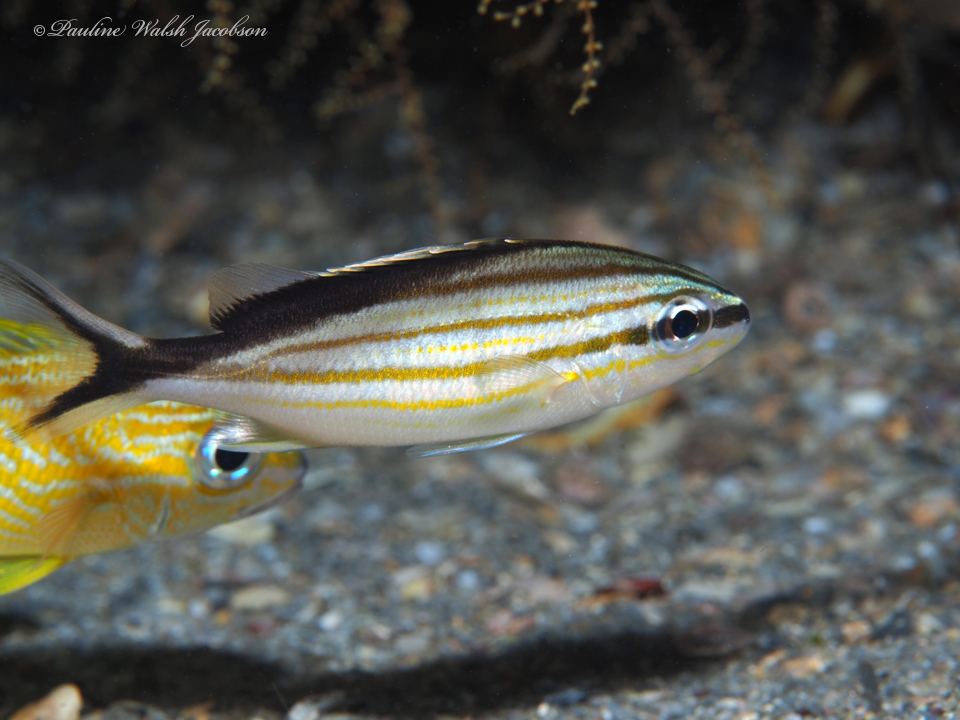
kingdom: Animalia
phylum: Chordata
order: Perciformes
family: Haemulidae
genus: Haemulon
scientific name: Haemulon melanurum
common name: Cottonwick
